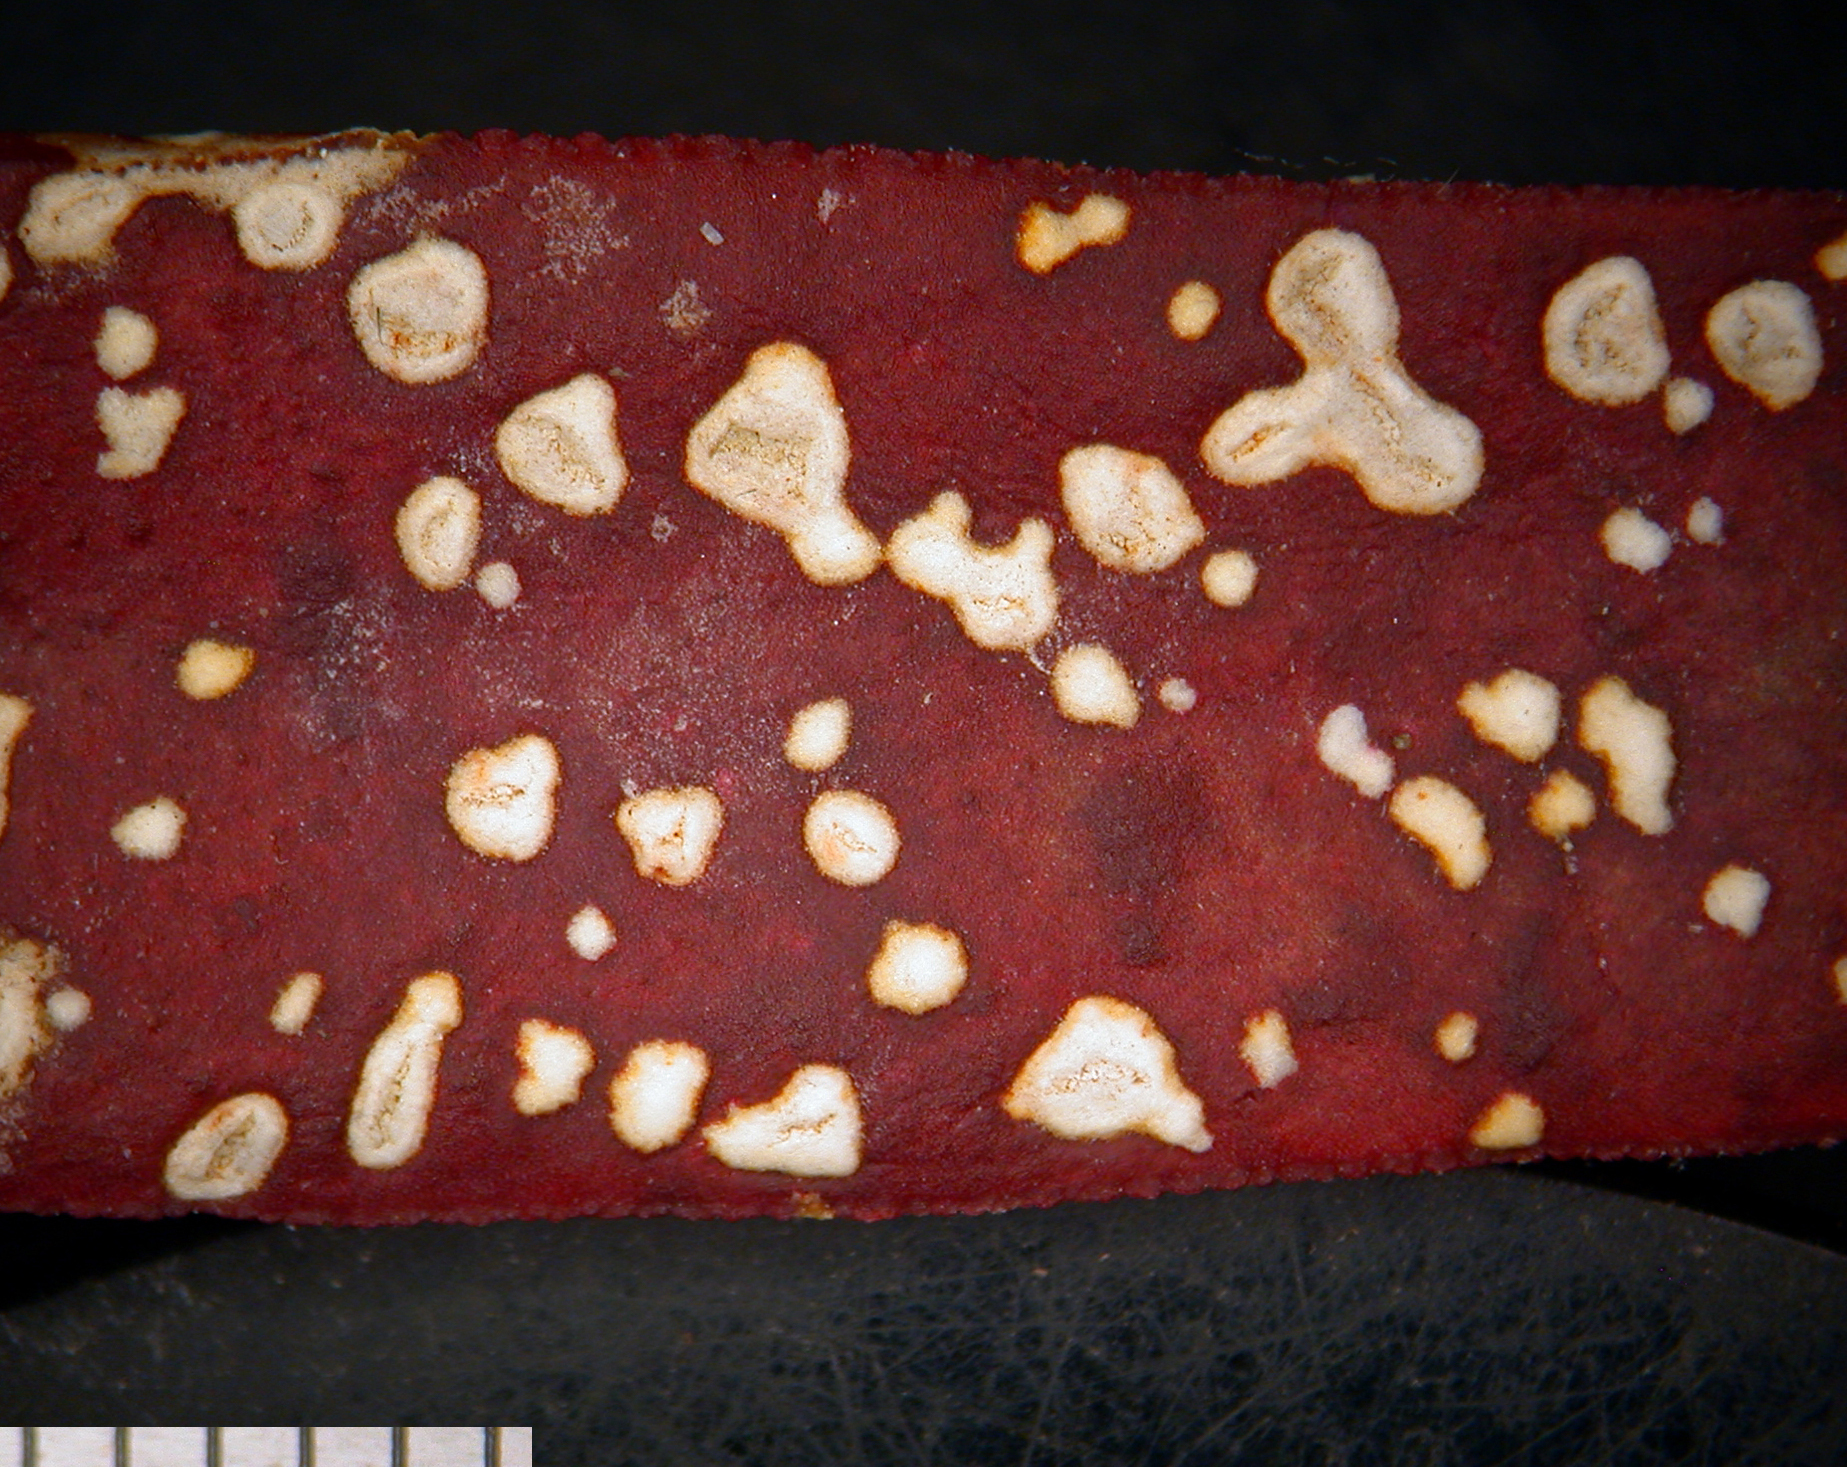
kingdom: Chromista
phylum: Oomycota
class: Peronosporea
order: Albuginales
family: Albuginaceae
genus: Albugo
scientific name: Albugo trianthemae
